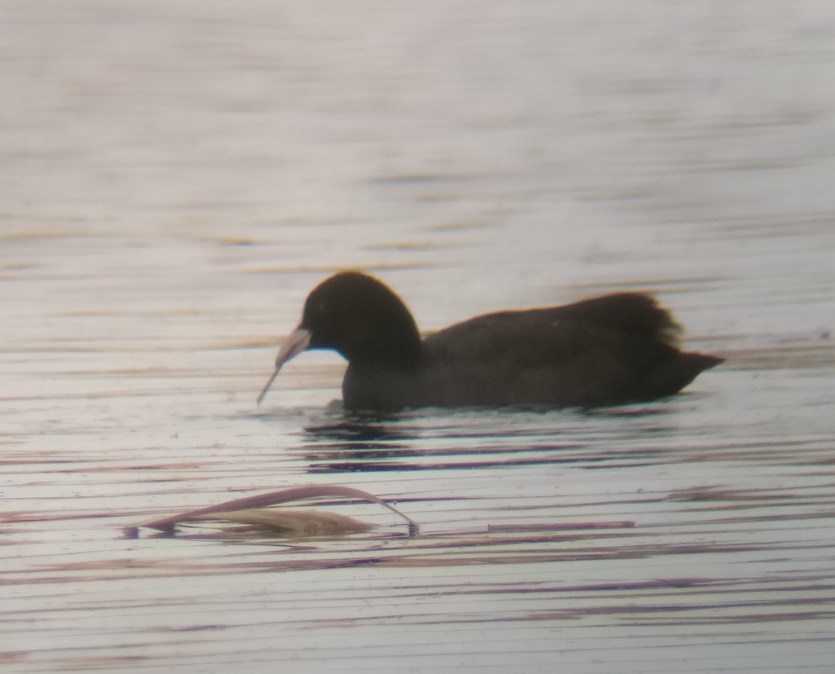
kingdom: Animalia
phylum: Chordata
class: Aves
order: Gruiformes
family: Rallidae
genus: Fulica
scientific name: Fulica atra
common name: Eurasian coot
